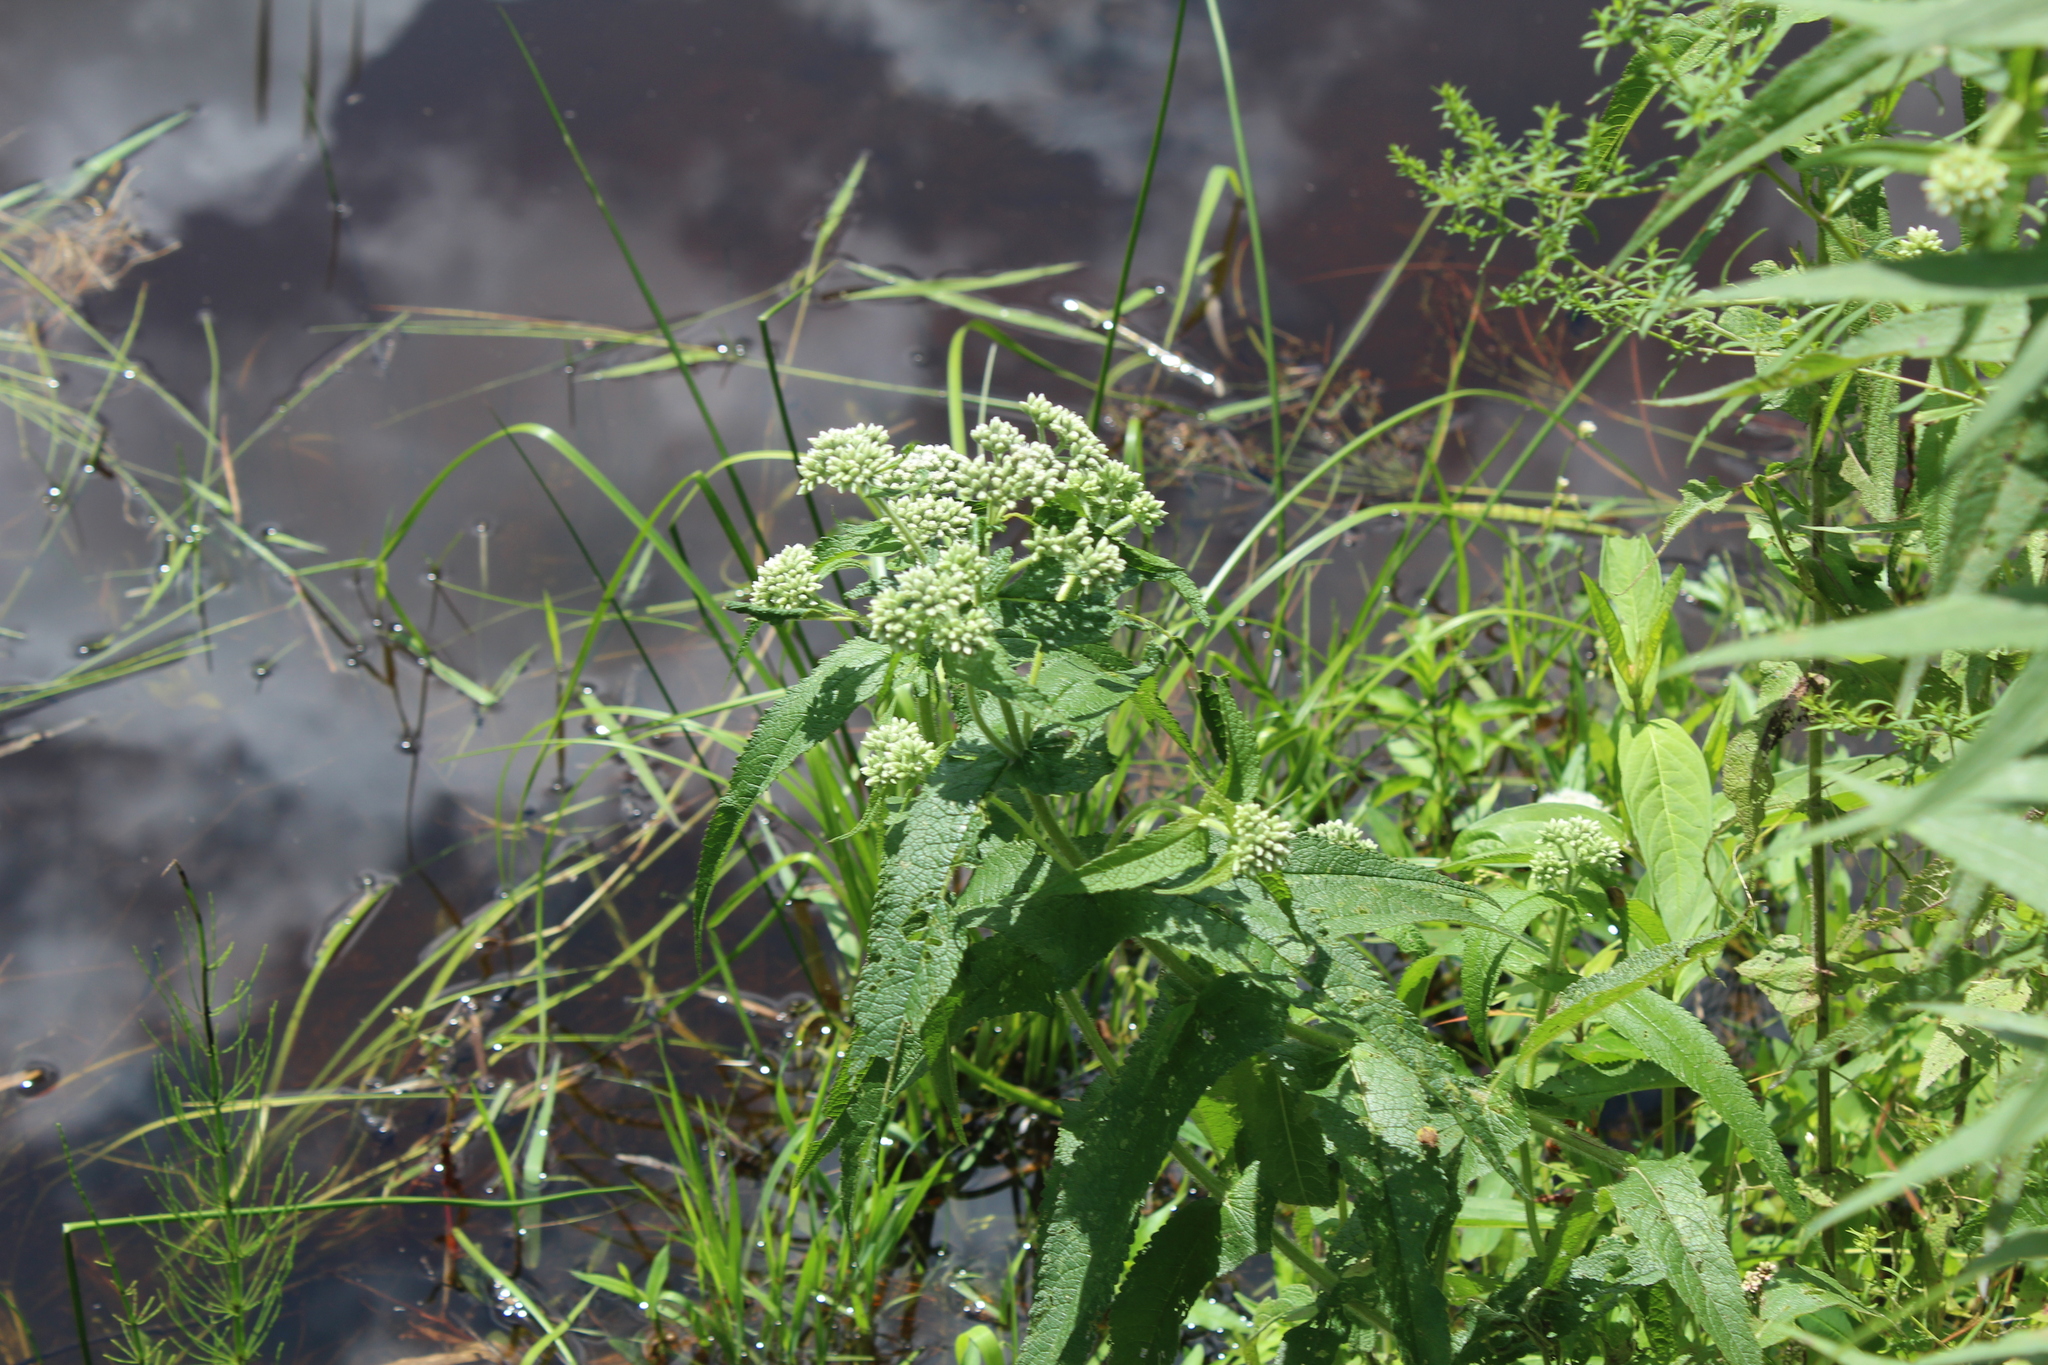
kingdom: Plantae
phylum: Tracheophyta
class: Magnoliopsida
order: Asterales
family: Asteraceae
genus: Eupatorium
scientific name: Eupatorium perfoliatum
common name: Boneset
